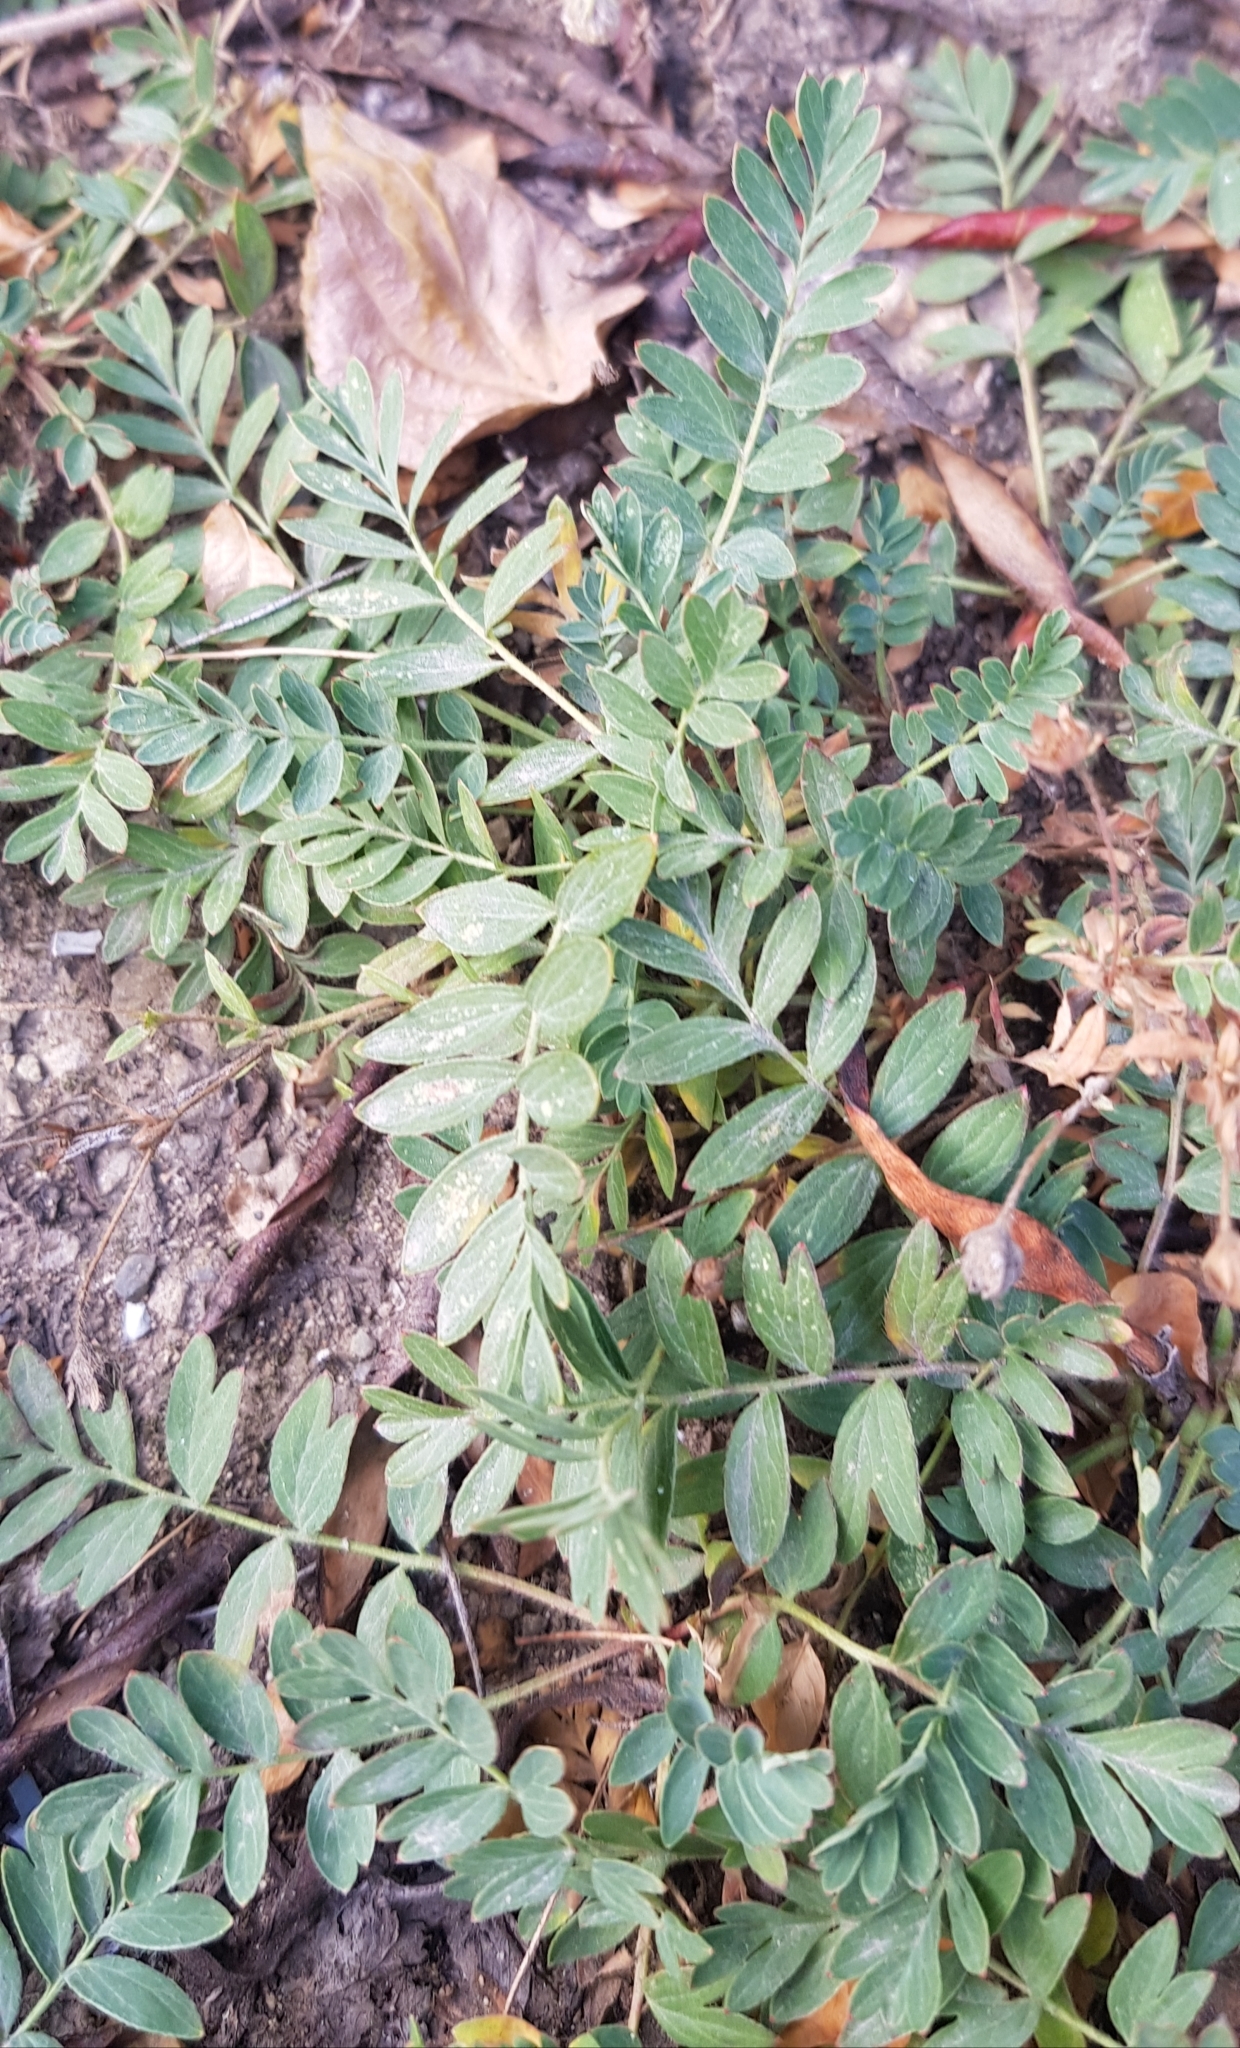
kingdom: Plantae
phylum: Tracheophyta
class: Magnoliopsida
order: Rosales
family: Rosaceae
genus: Sibbaldianthe
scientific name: Sibbaldianthe bifurca
